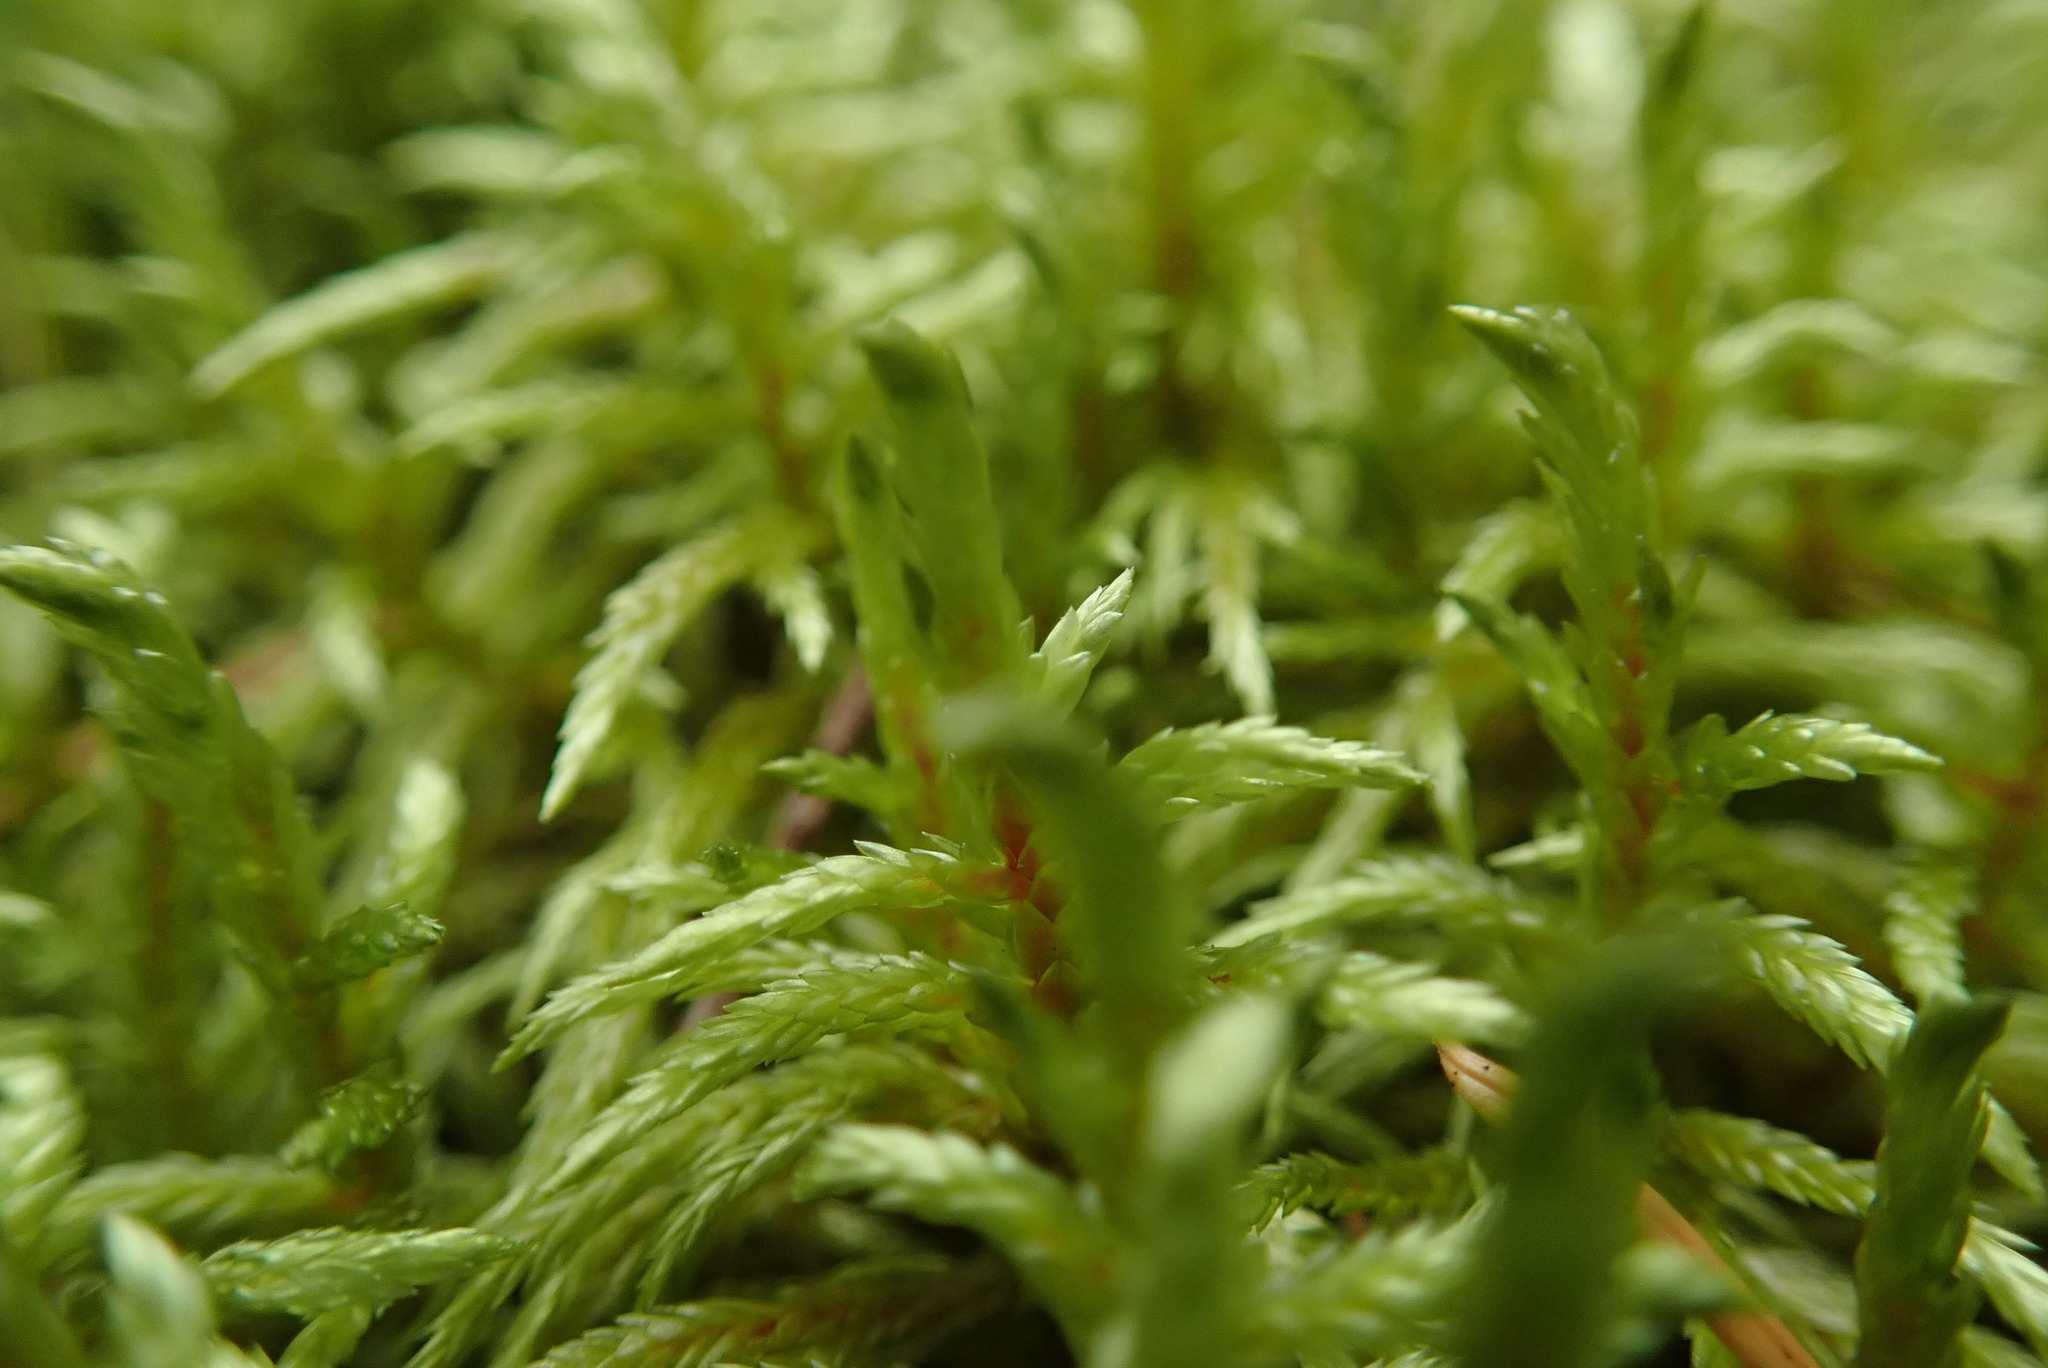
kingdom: Plantae
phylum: Bryophyta
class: Bryopsida
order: Hypnales
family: Hylocomiaceae
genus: Pleurozium
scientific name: Pleurozium schreberi
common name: Red-stemmed feather moss
